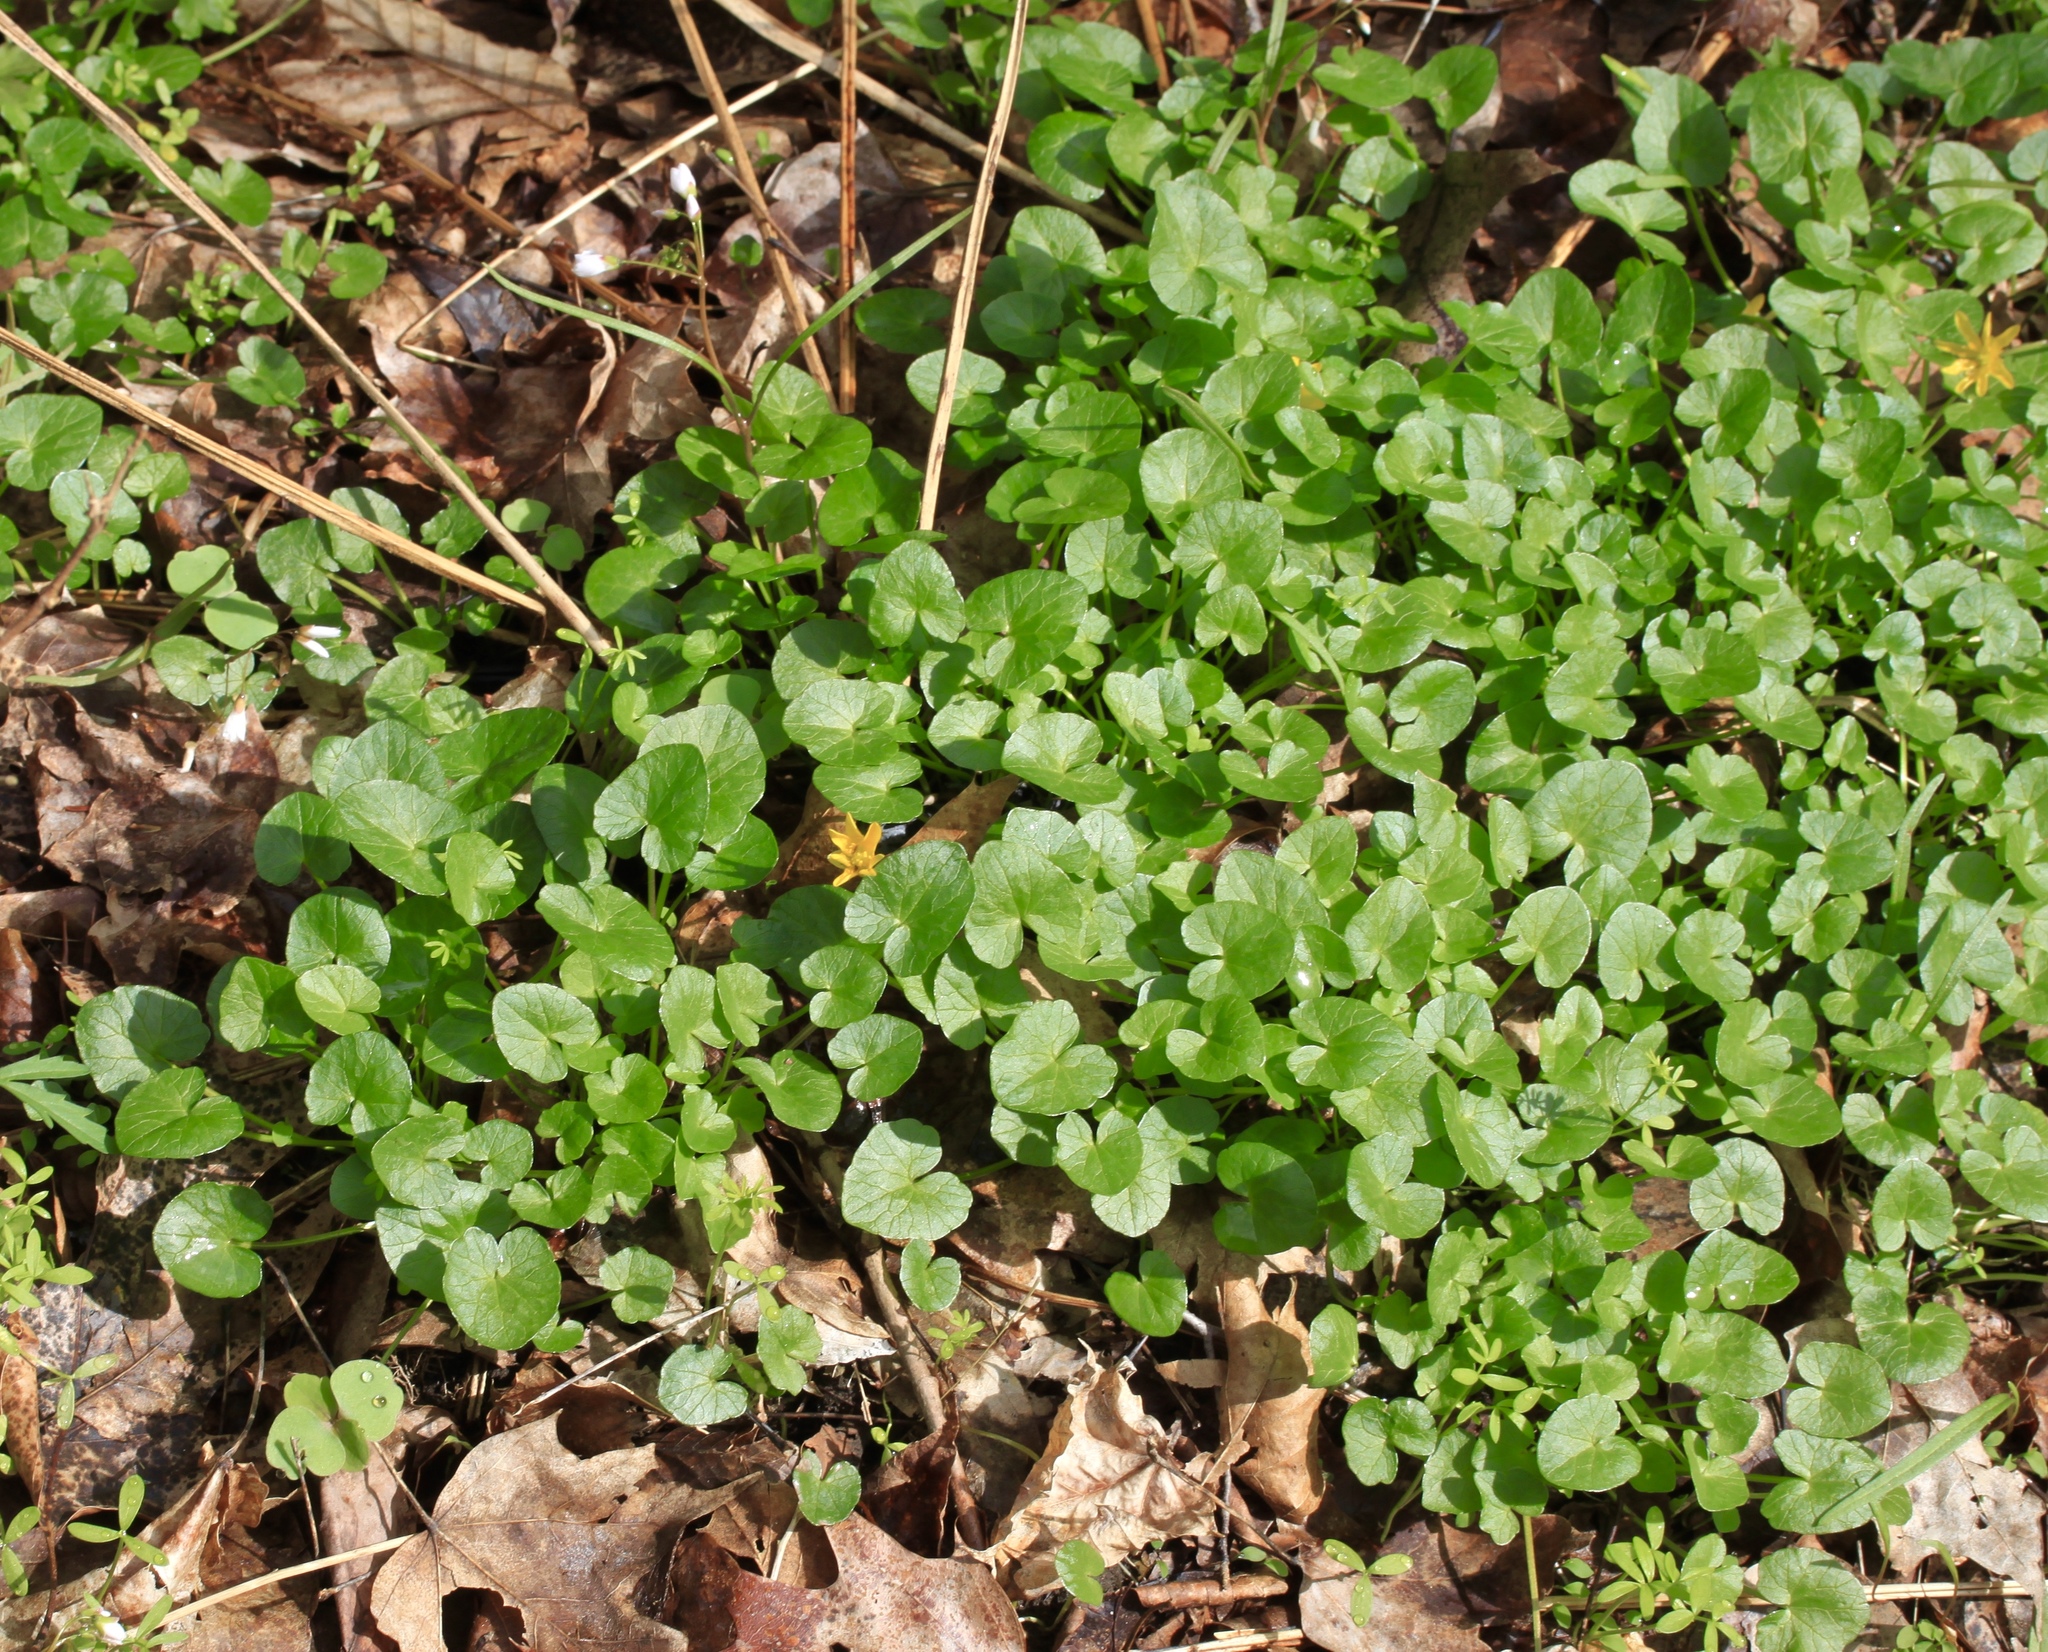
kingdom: Plantae
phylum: Tracheophyta
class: Magnoliopsida
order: Ranunculales
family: Ranunculaceae
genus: Ficaria
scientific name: Ficaria verna
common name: Lesser celandine
